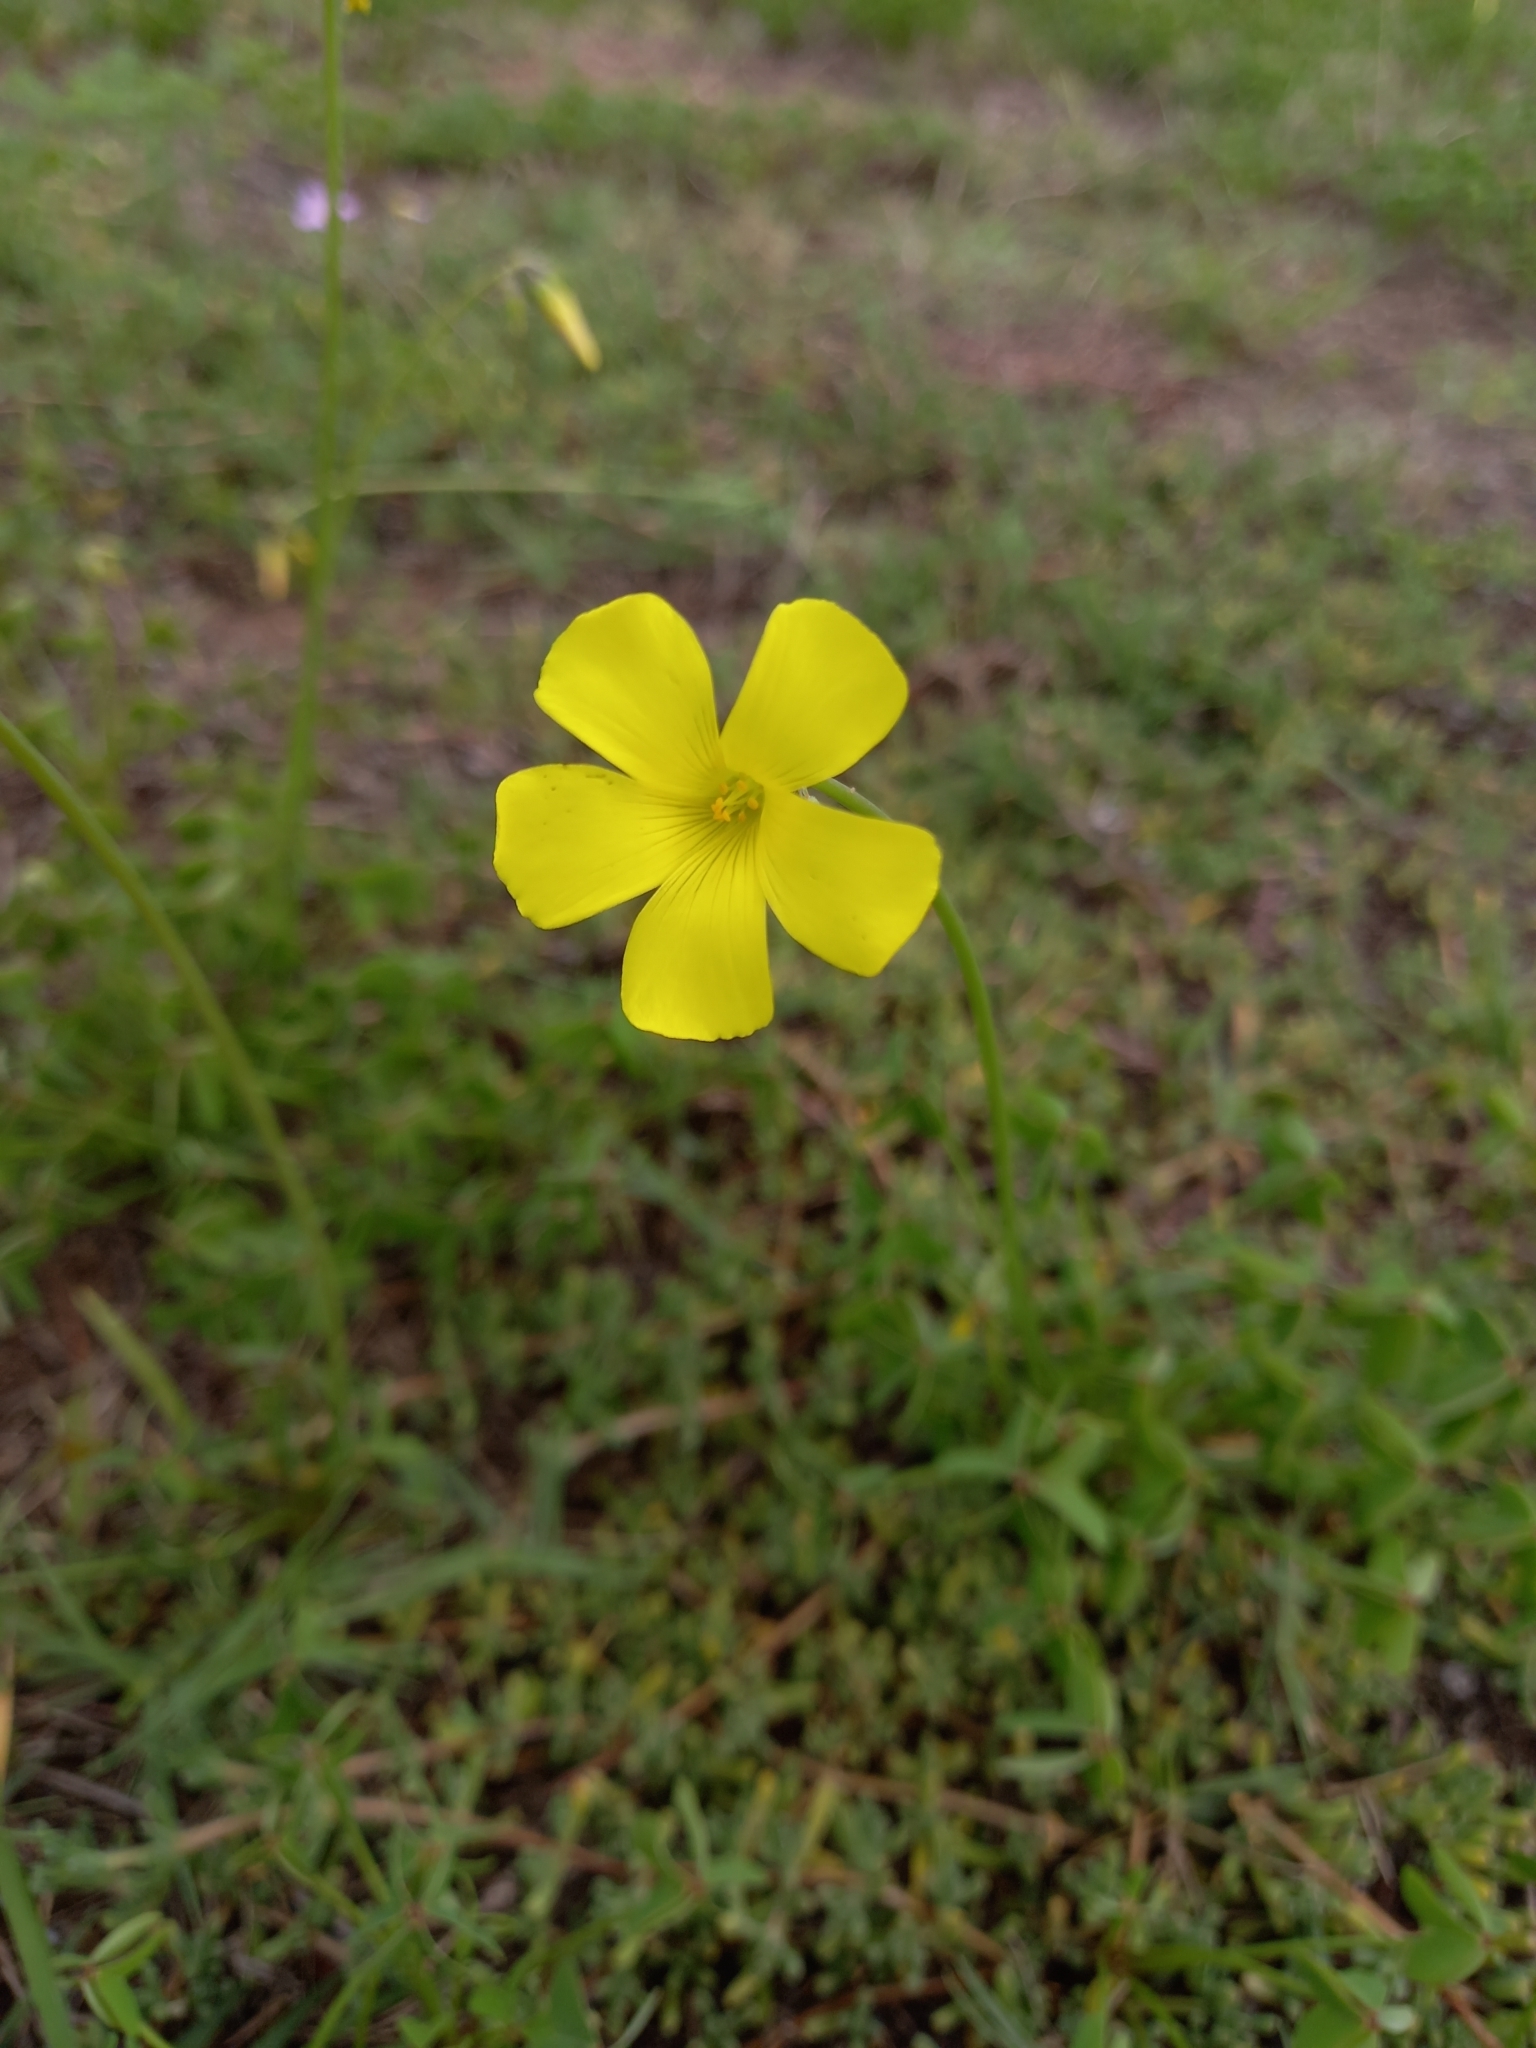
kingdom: Plantae
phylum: Tracheophyta
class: Magnoliopsida
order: Oxalidales
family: Oxalidaceae
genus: Oxalis
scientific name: Oxalis pes-caprae
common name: Bermuda-buttercup
